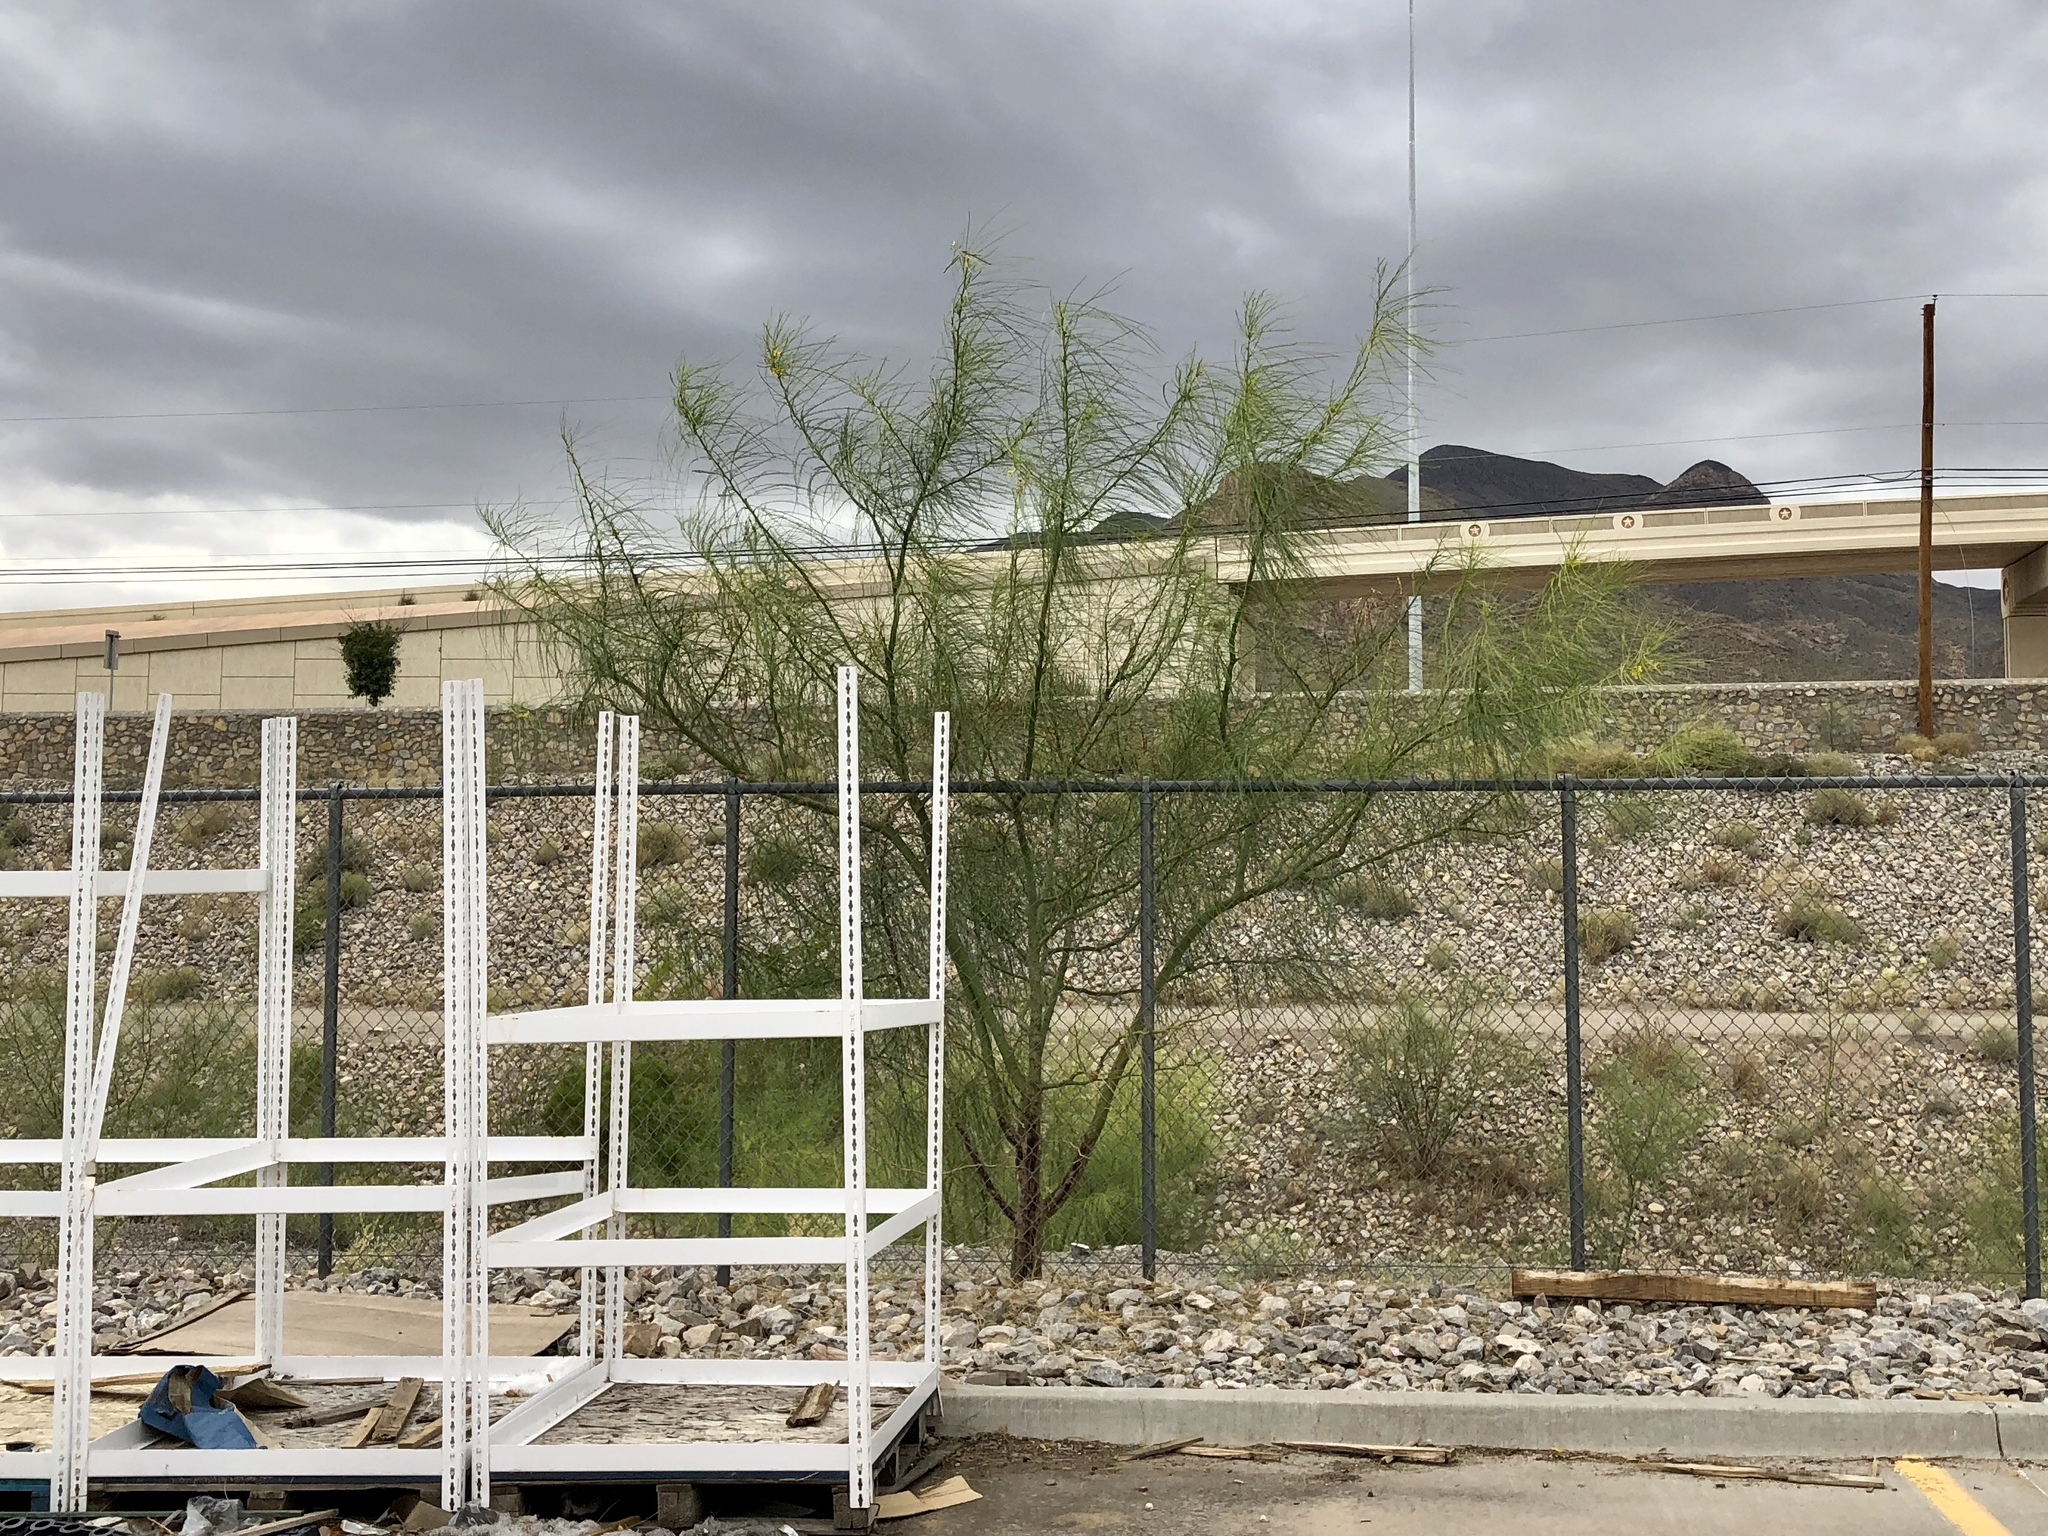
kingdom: Plantae
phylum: Tracheophyta
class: Magnoliopsida
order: Fabales
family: Fabaceae
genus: Parkinsonia
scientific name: Parkinsonia aculeata
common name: Jerusalem thorn
